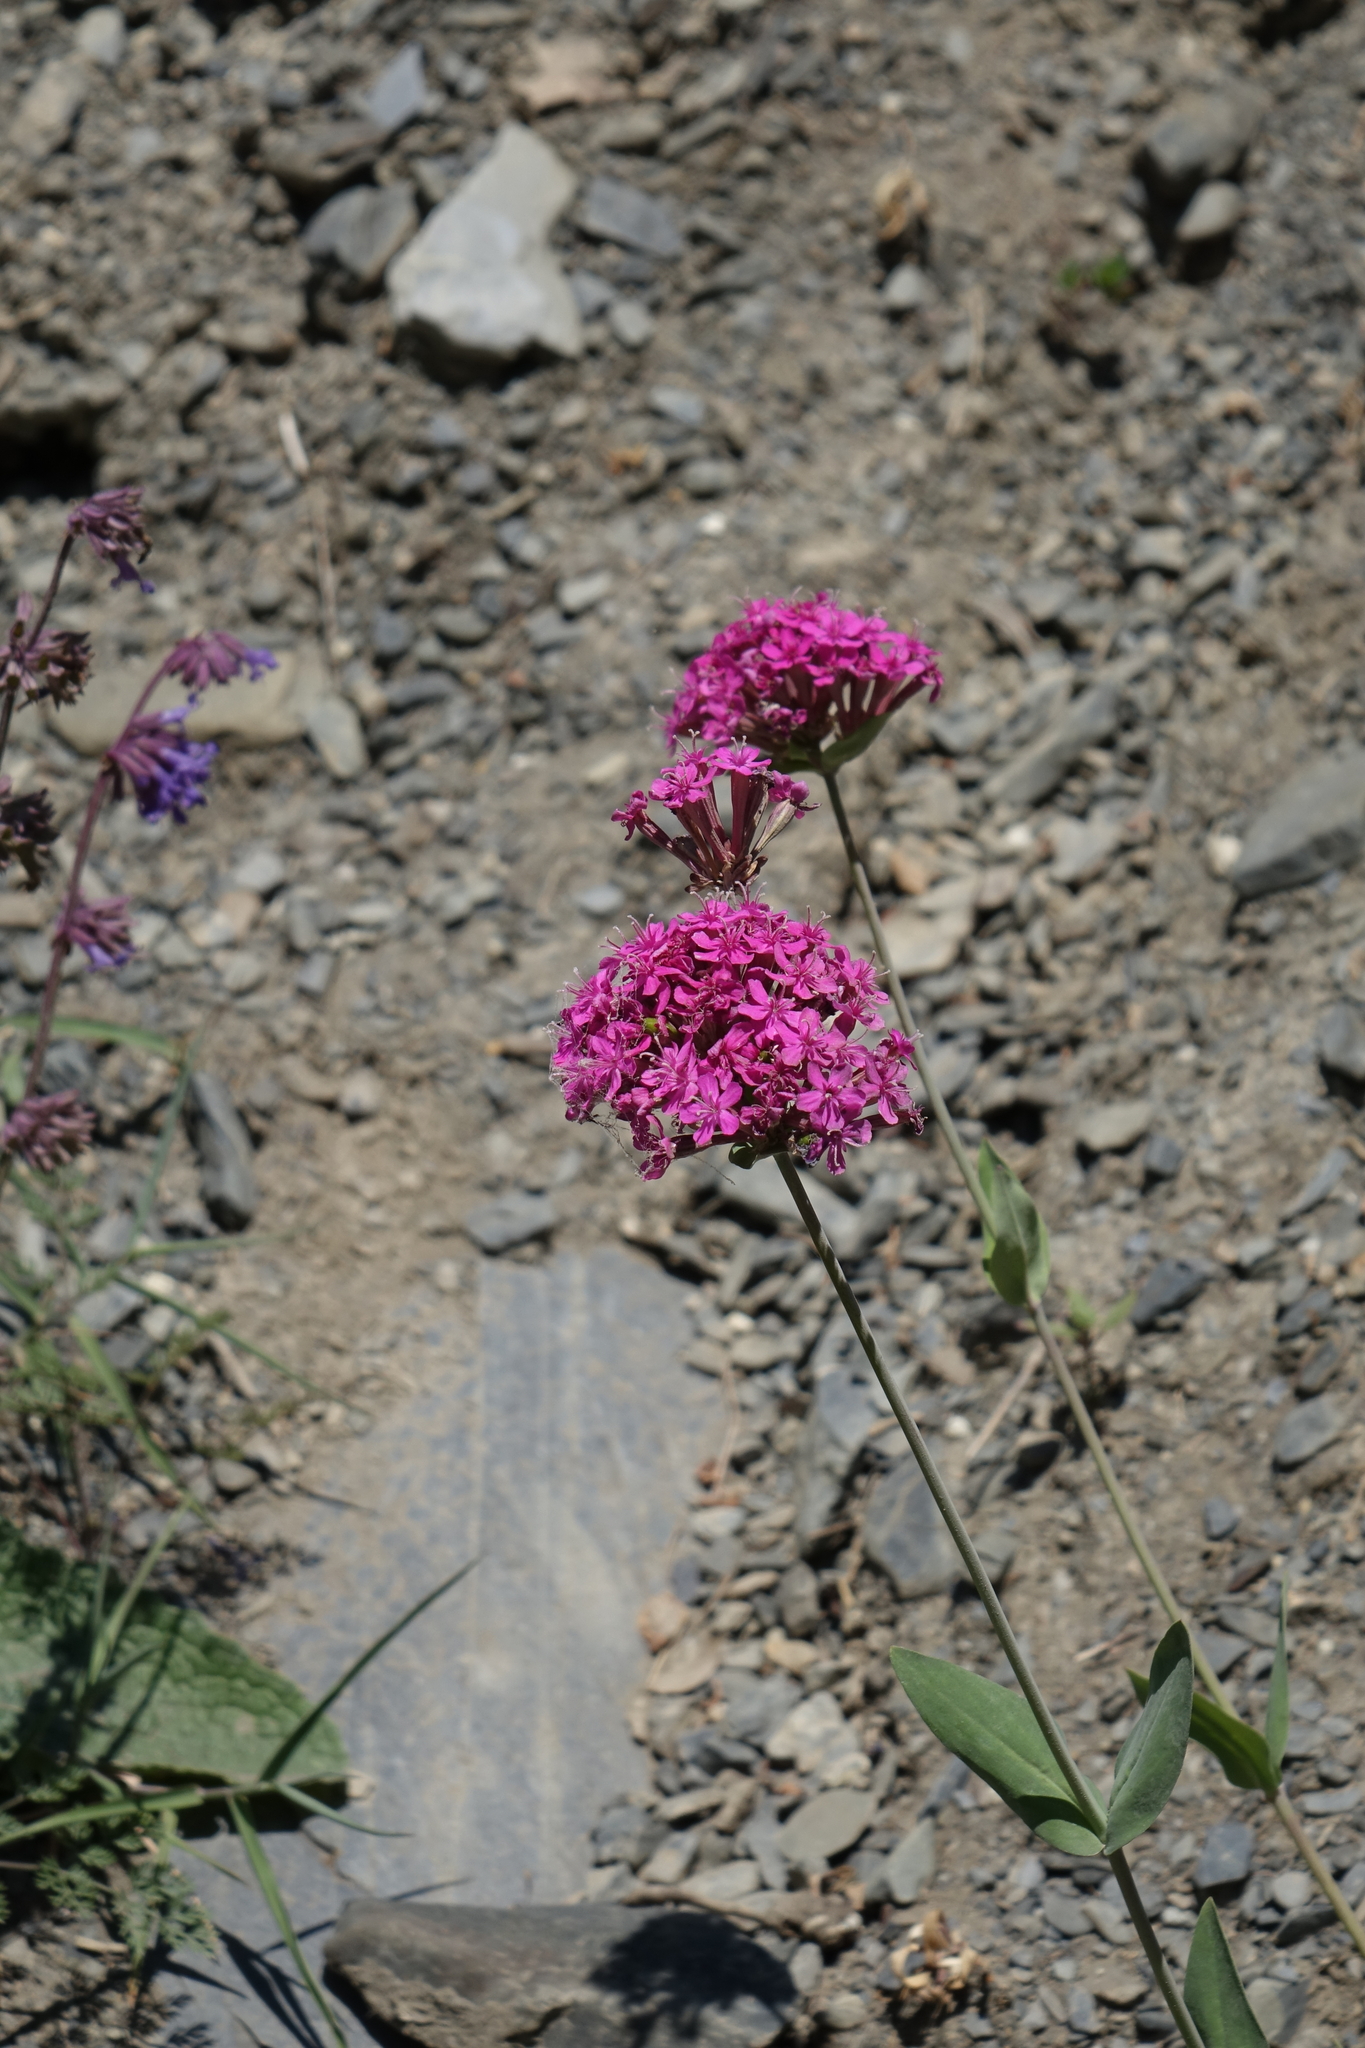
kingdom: Plantae
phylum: Tracheophyta
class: Magnoliopsida
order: Caryophyllales
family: Caryophyllaceae
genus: Atocion
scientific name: Atocion compactum
